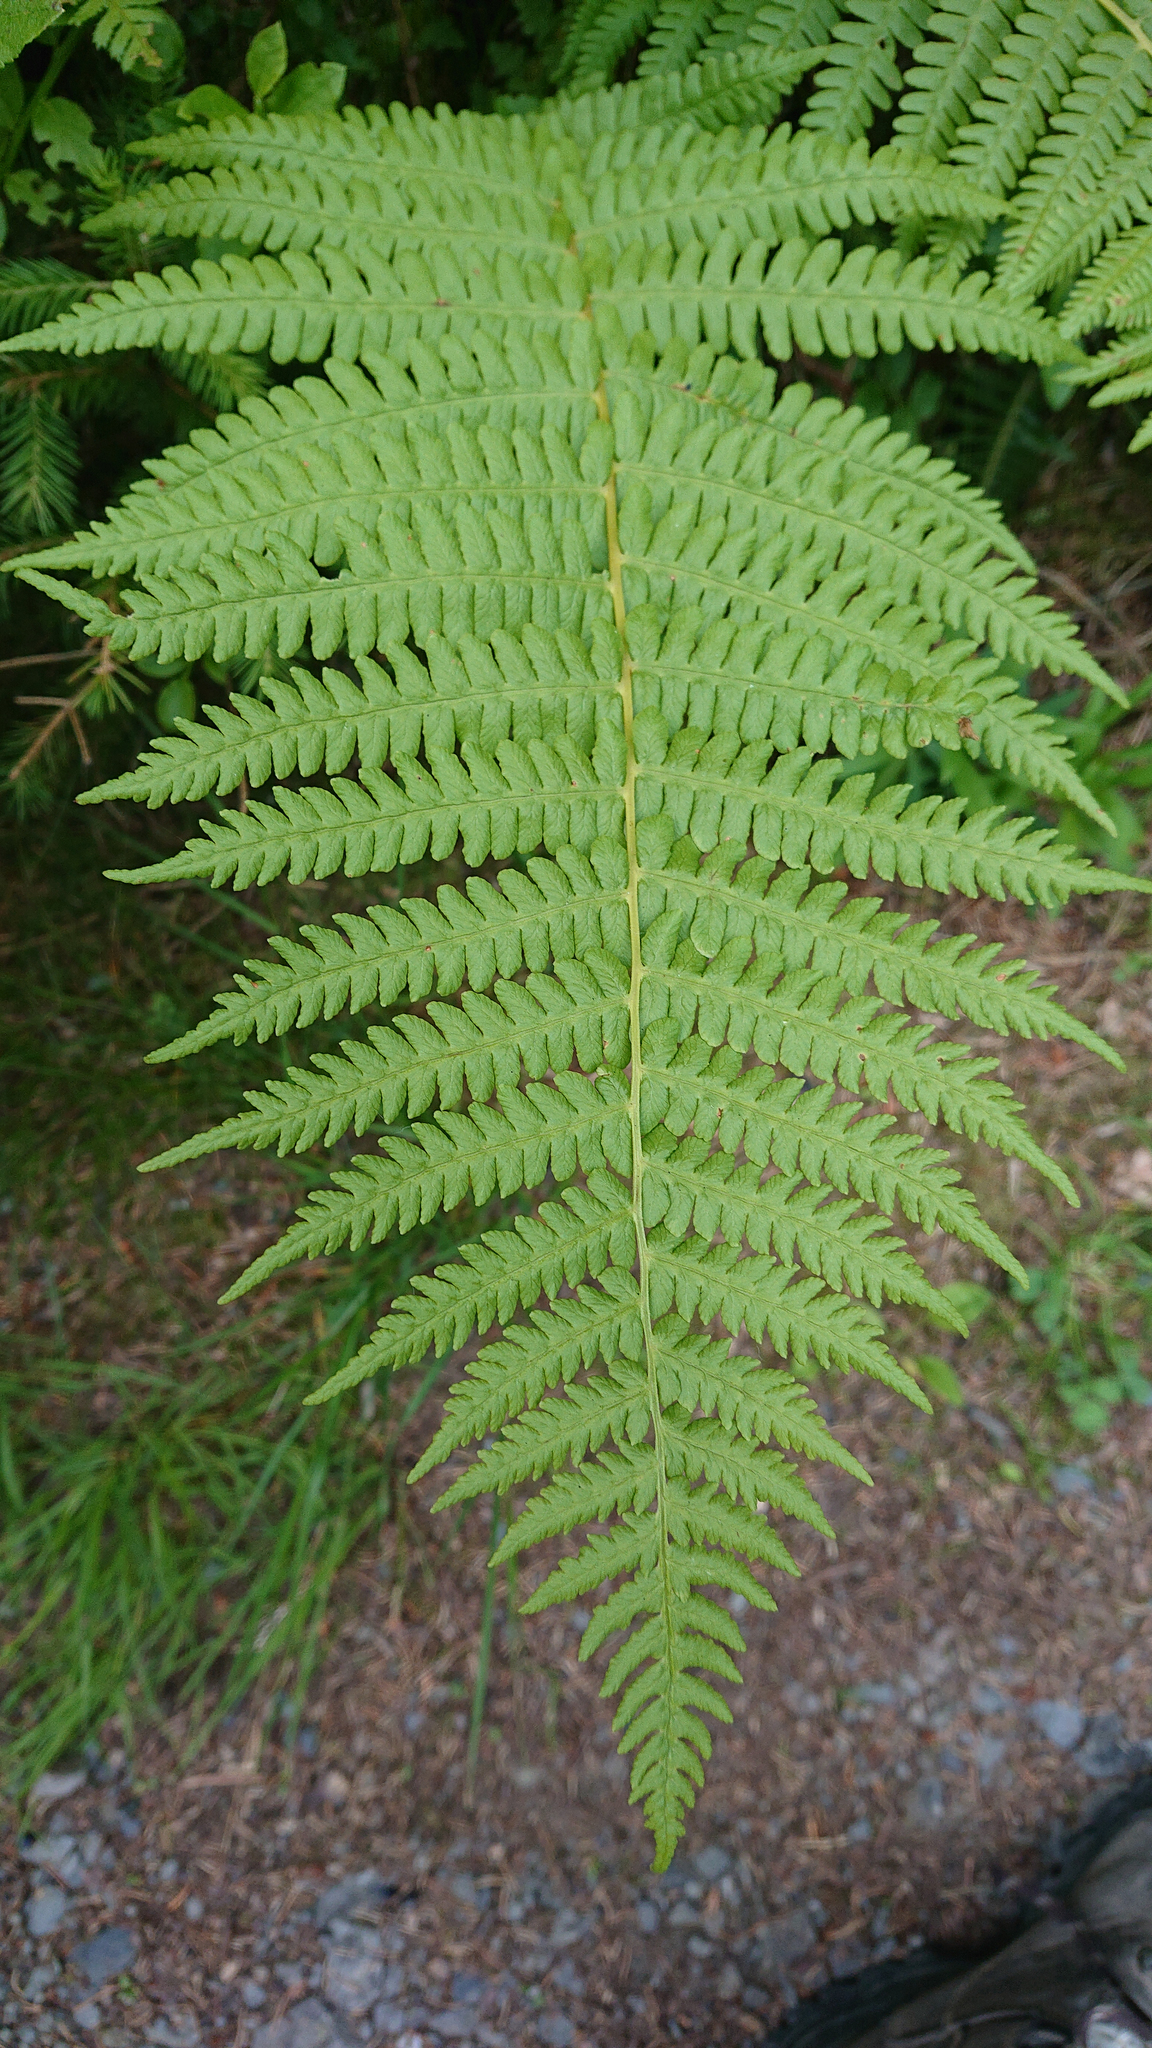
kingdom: Plantae
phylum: Tracheophyta
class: Polypodiopsida
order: Polypodiales
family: Thelypteridaceae
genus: Oreopteris
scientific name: Oreopteris limbosperma
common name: Lemon-scented fern
